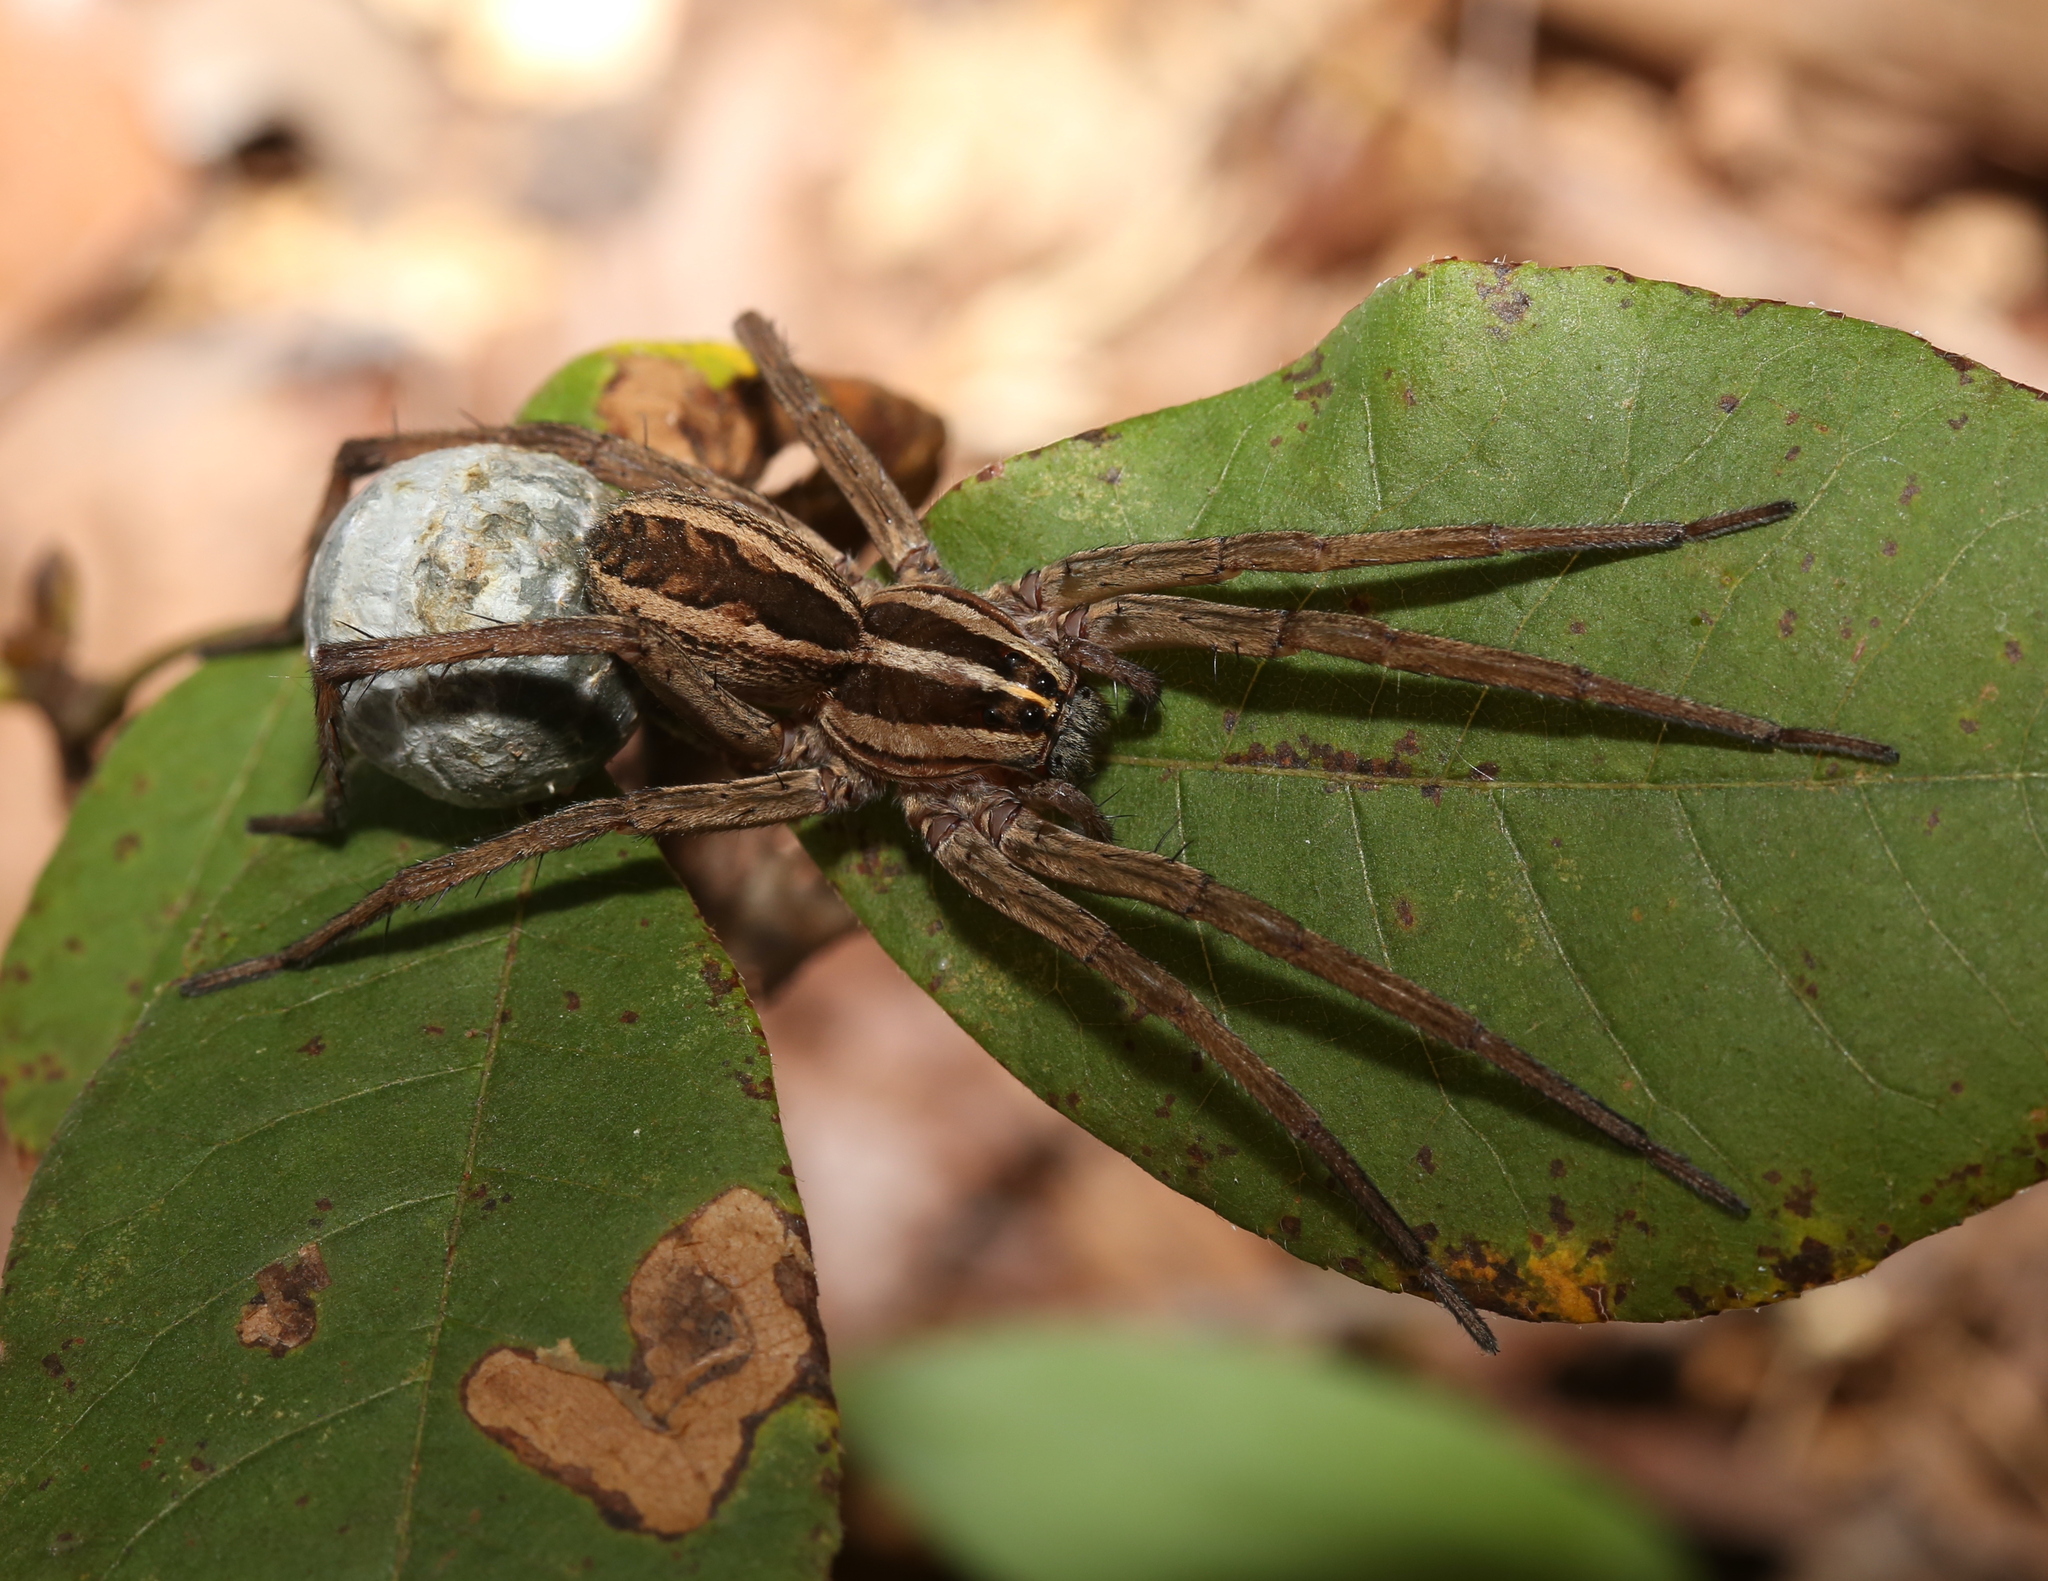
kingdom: Animalia
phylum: Arthropoda
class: Arachnida
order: Araneae
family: Lycosidae
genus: Rabidosa
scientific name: Rabidosa rabida
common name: Rabid wolf spider
